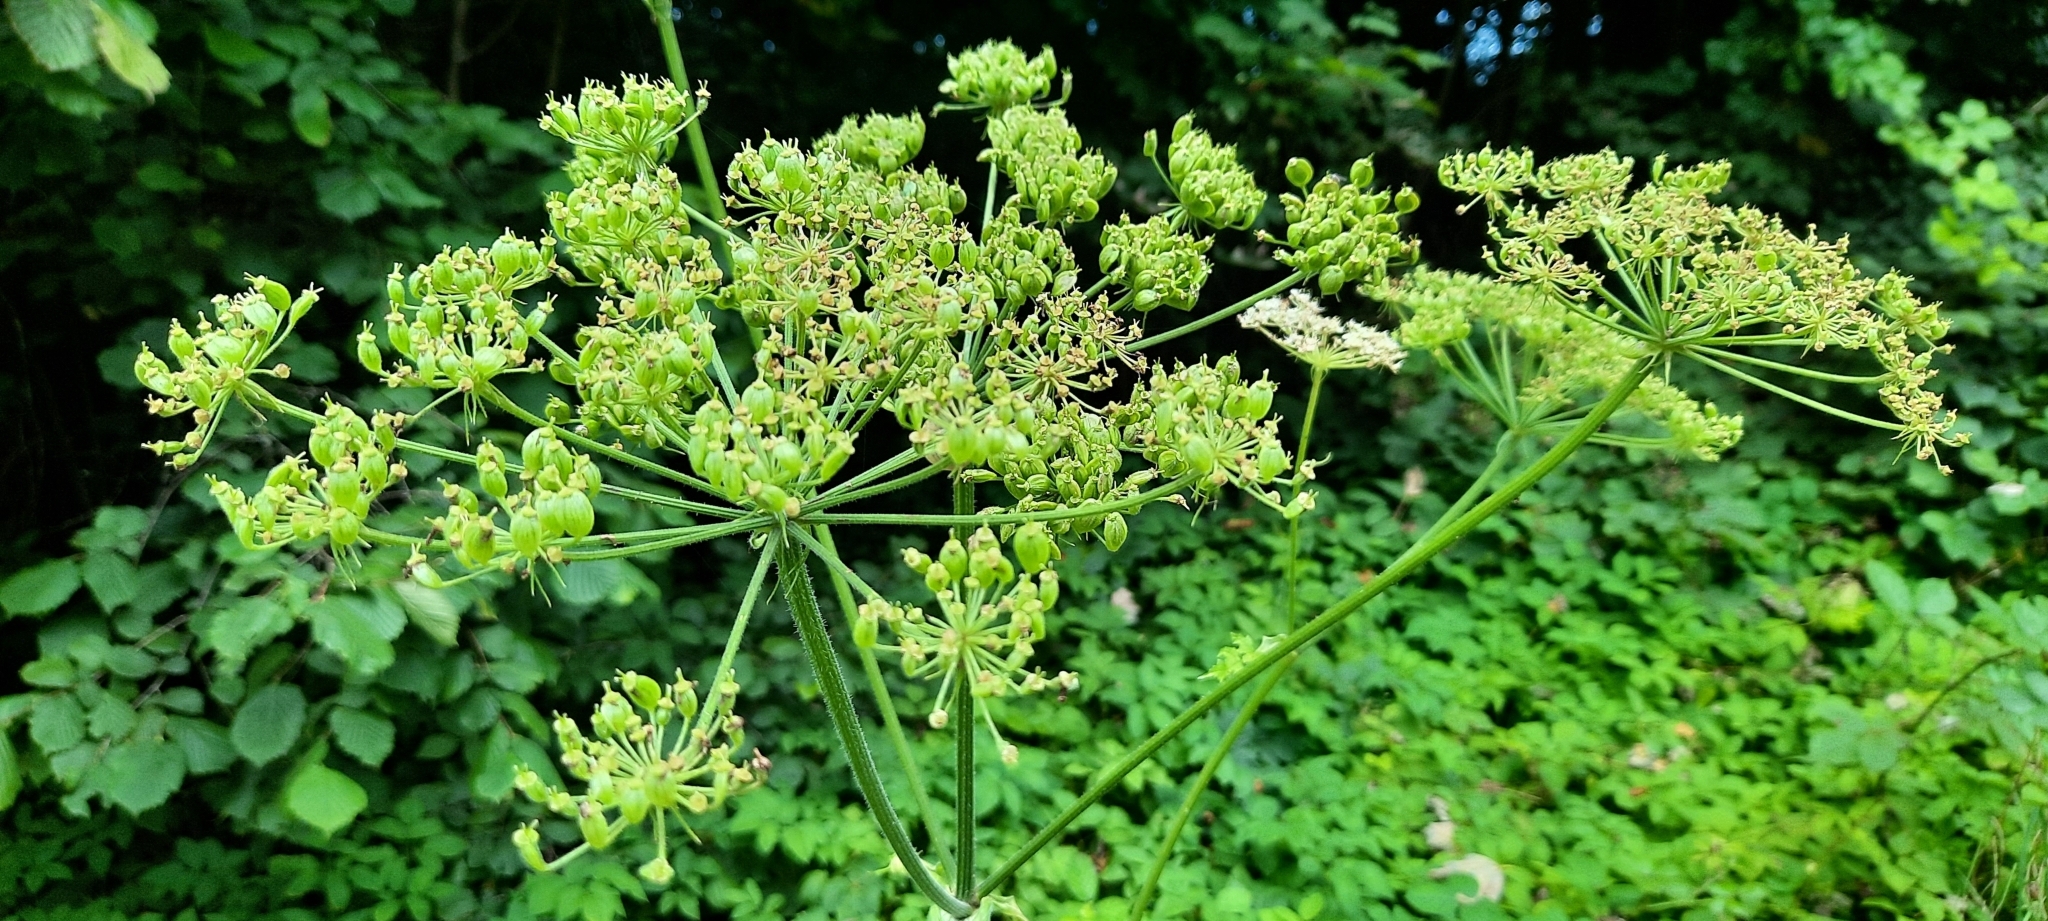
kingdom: Plantae
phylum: Tracheophyta
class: Magnoliopsida
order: Apiales
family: Apiaceae
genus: Heracleum
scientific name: Heracleum sphondylium
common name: Hogweed
